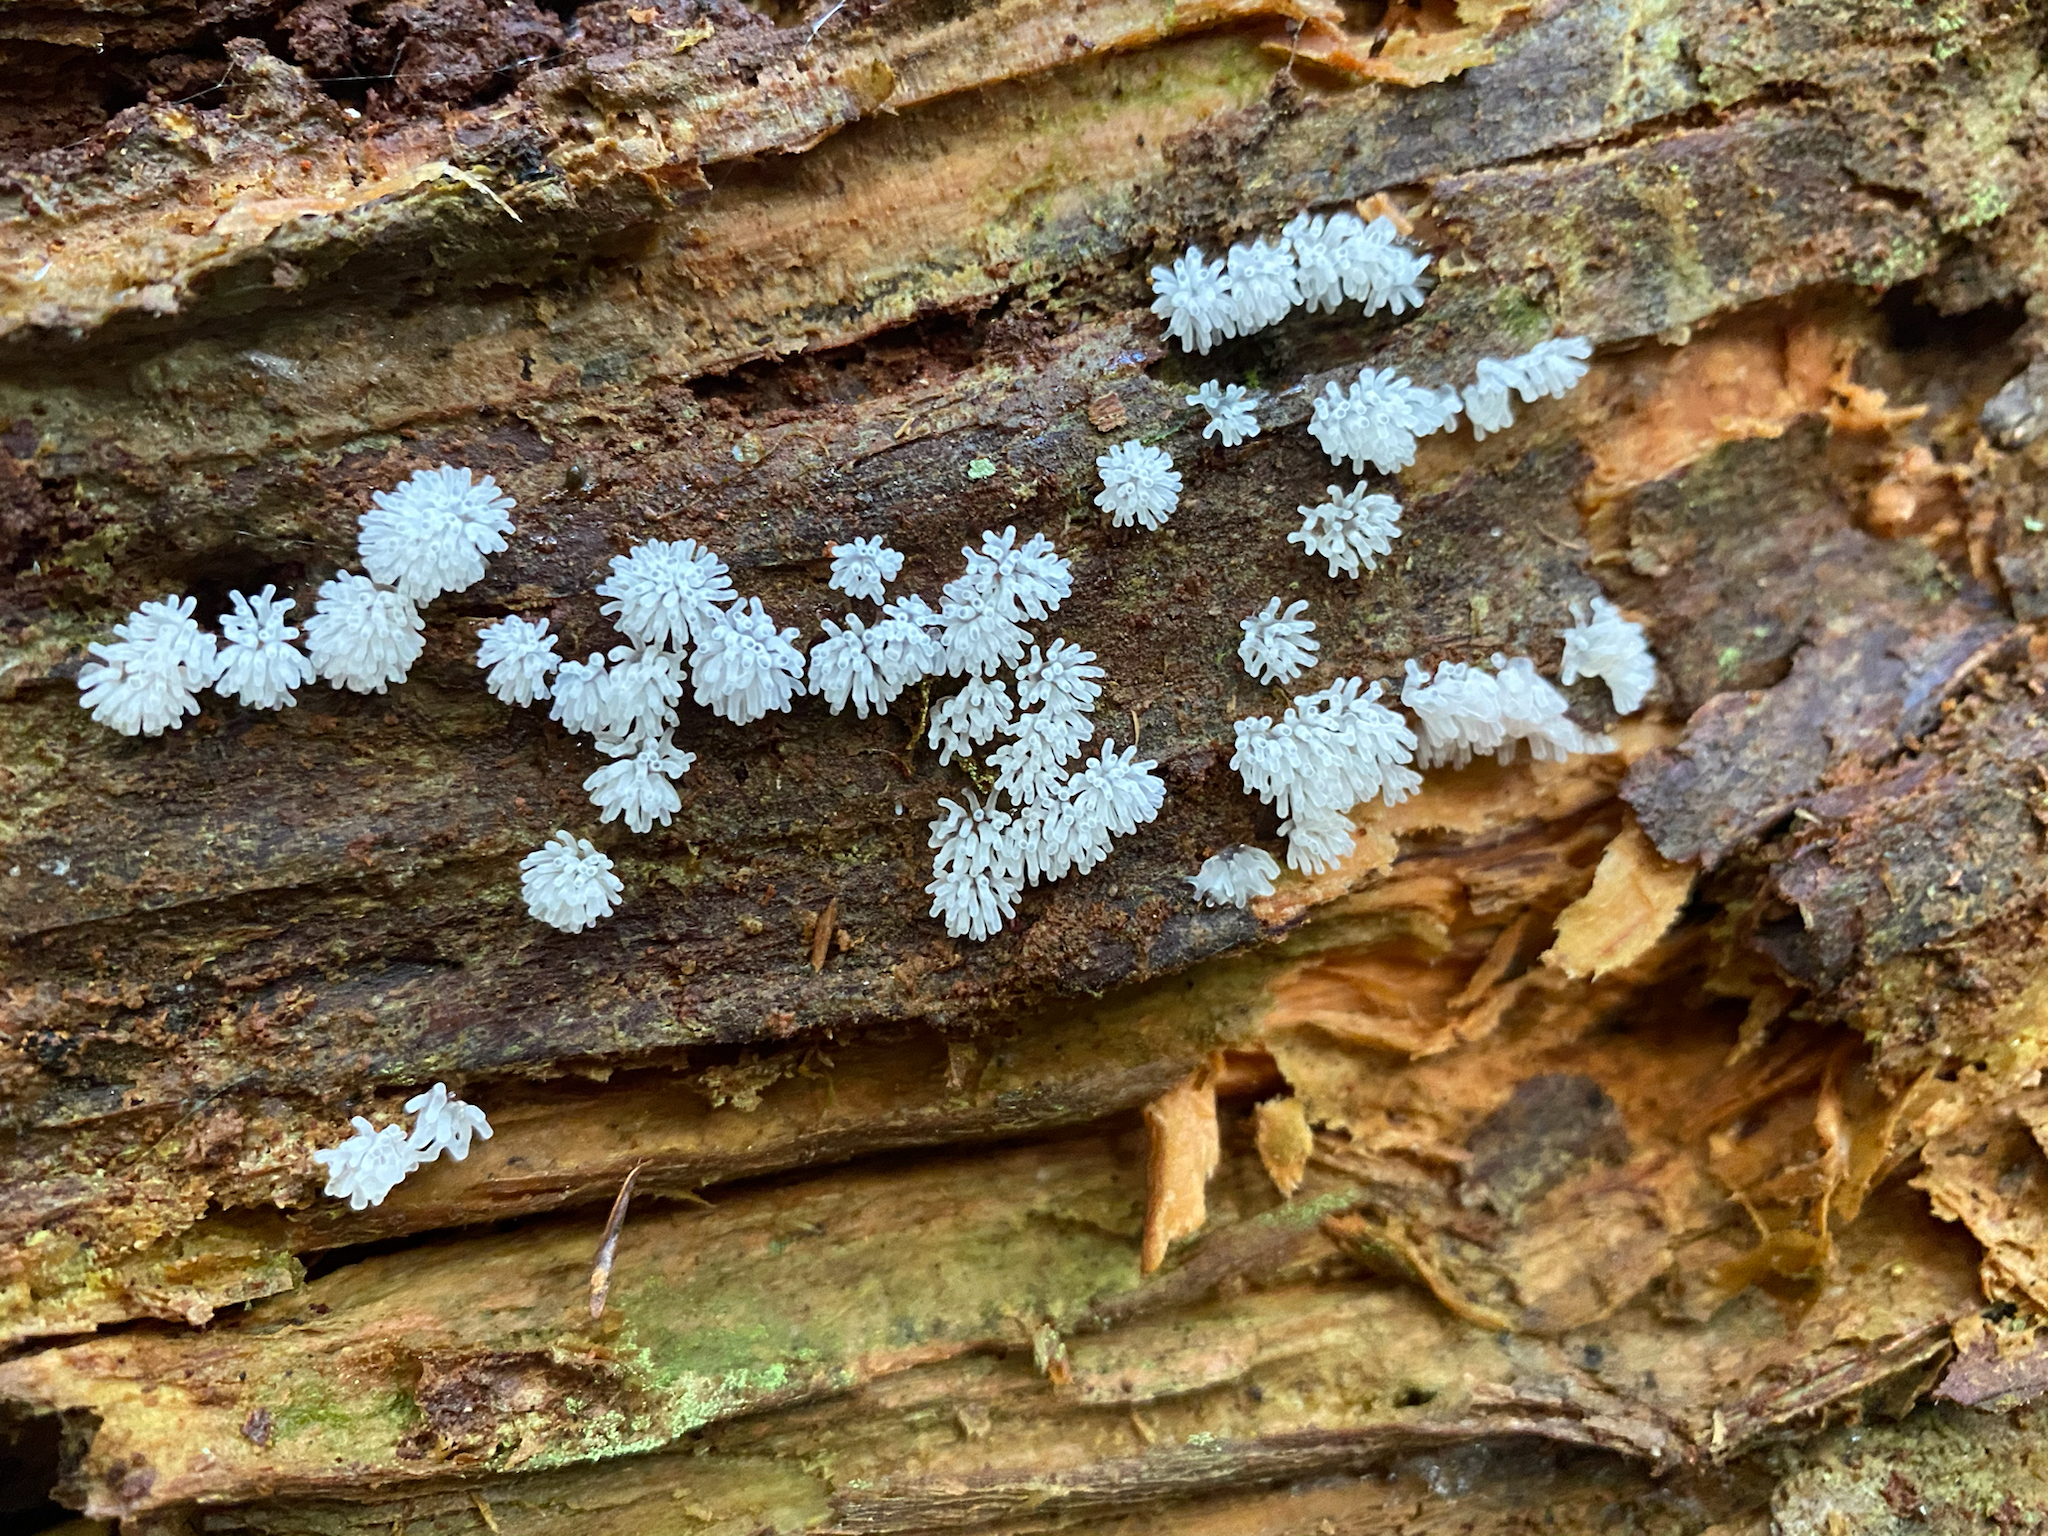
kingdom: Protozoa
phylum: Mycetozoa
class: Protosteliomycetes
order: Ceratiomyxales
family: Ceratiomyxaceae
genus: Ceratiomyxa
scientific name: Ceratiomyxa fruticulosa
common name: Honeycomb coral slime mold
